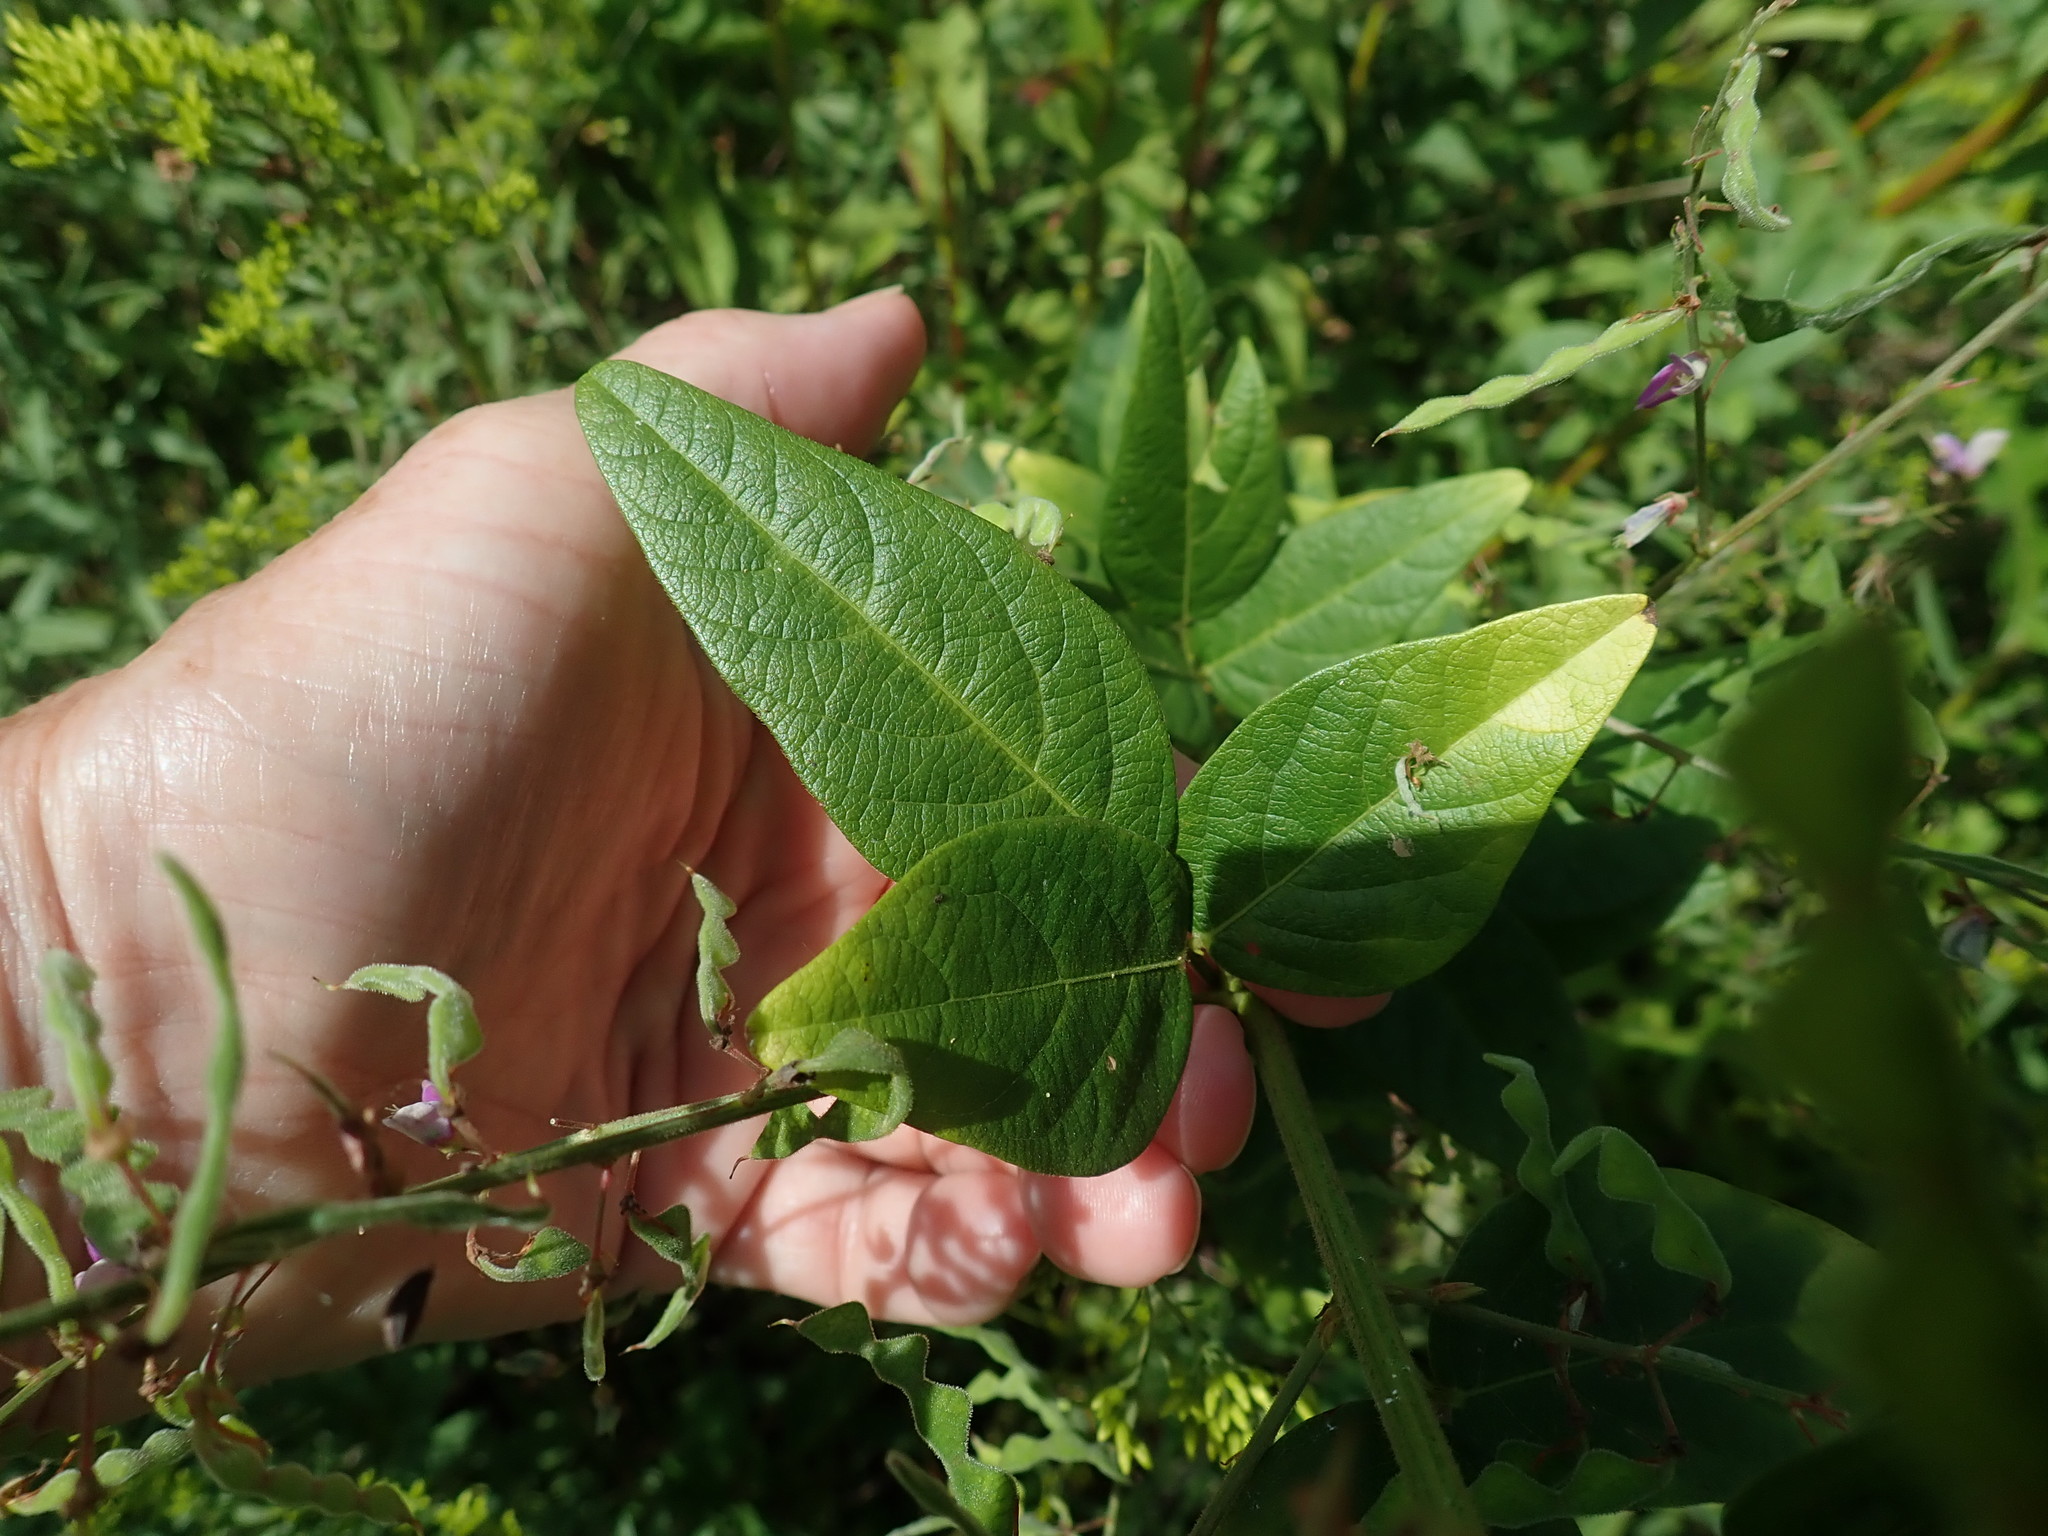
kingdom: Plantae
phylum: Tracheophyta
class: Magnoliopsida
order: Fabales
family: Fabaceae
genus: Desmodium
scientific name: Desmodium canadense
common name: Canada tick-trefoil
